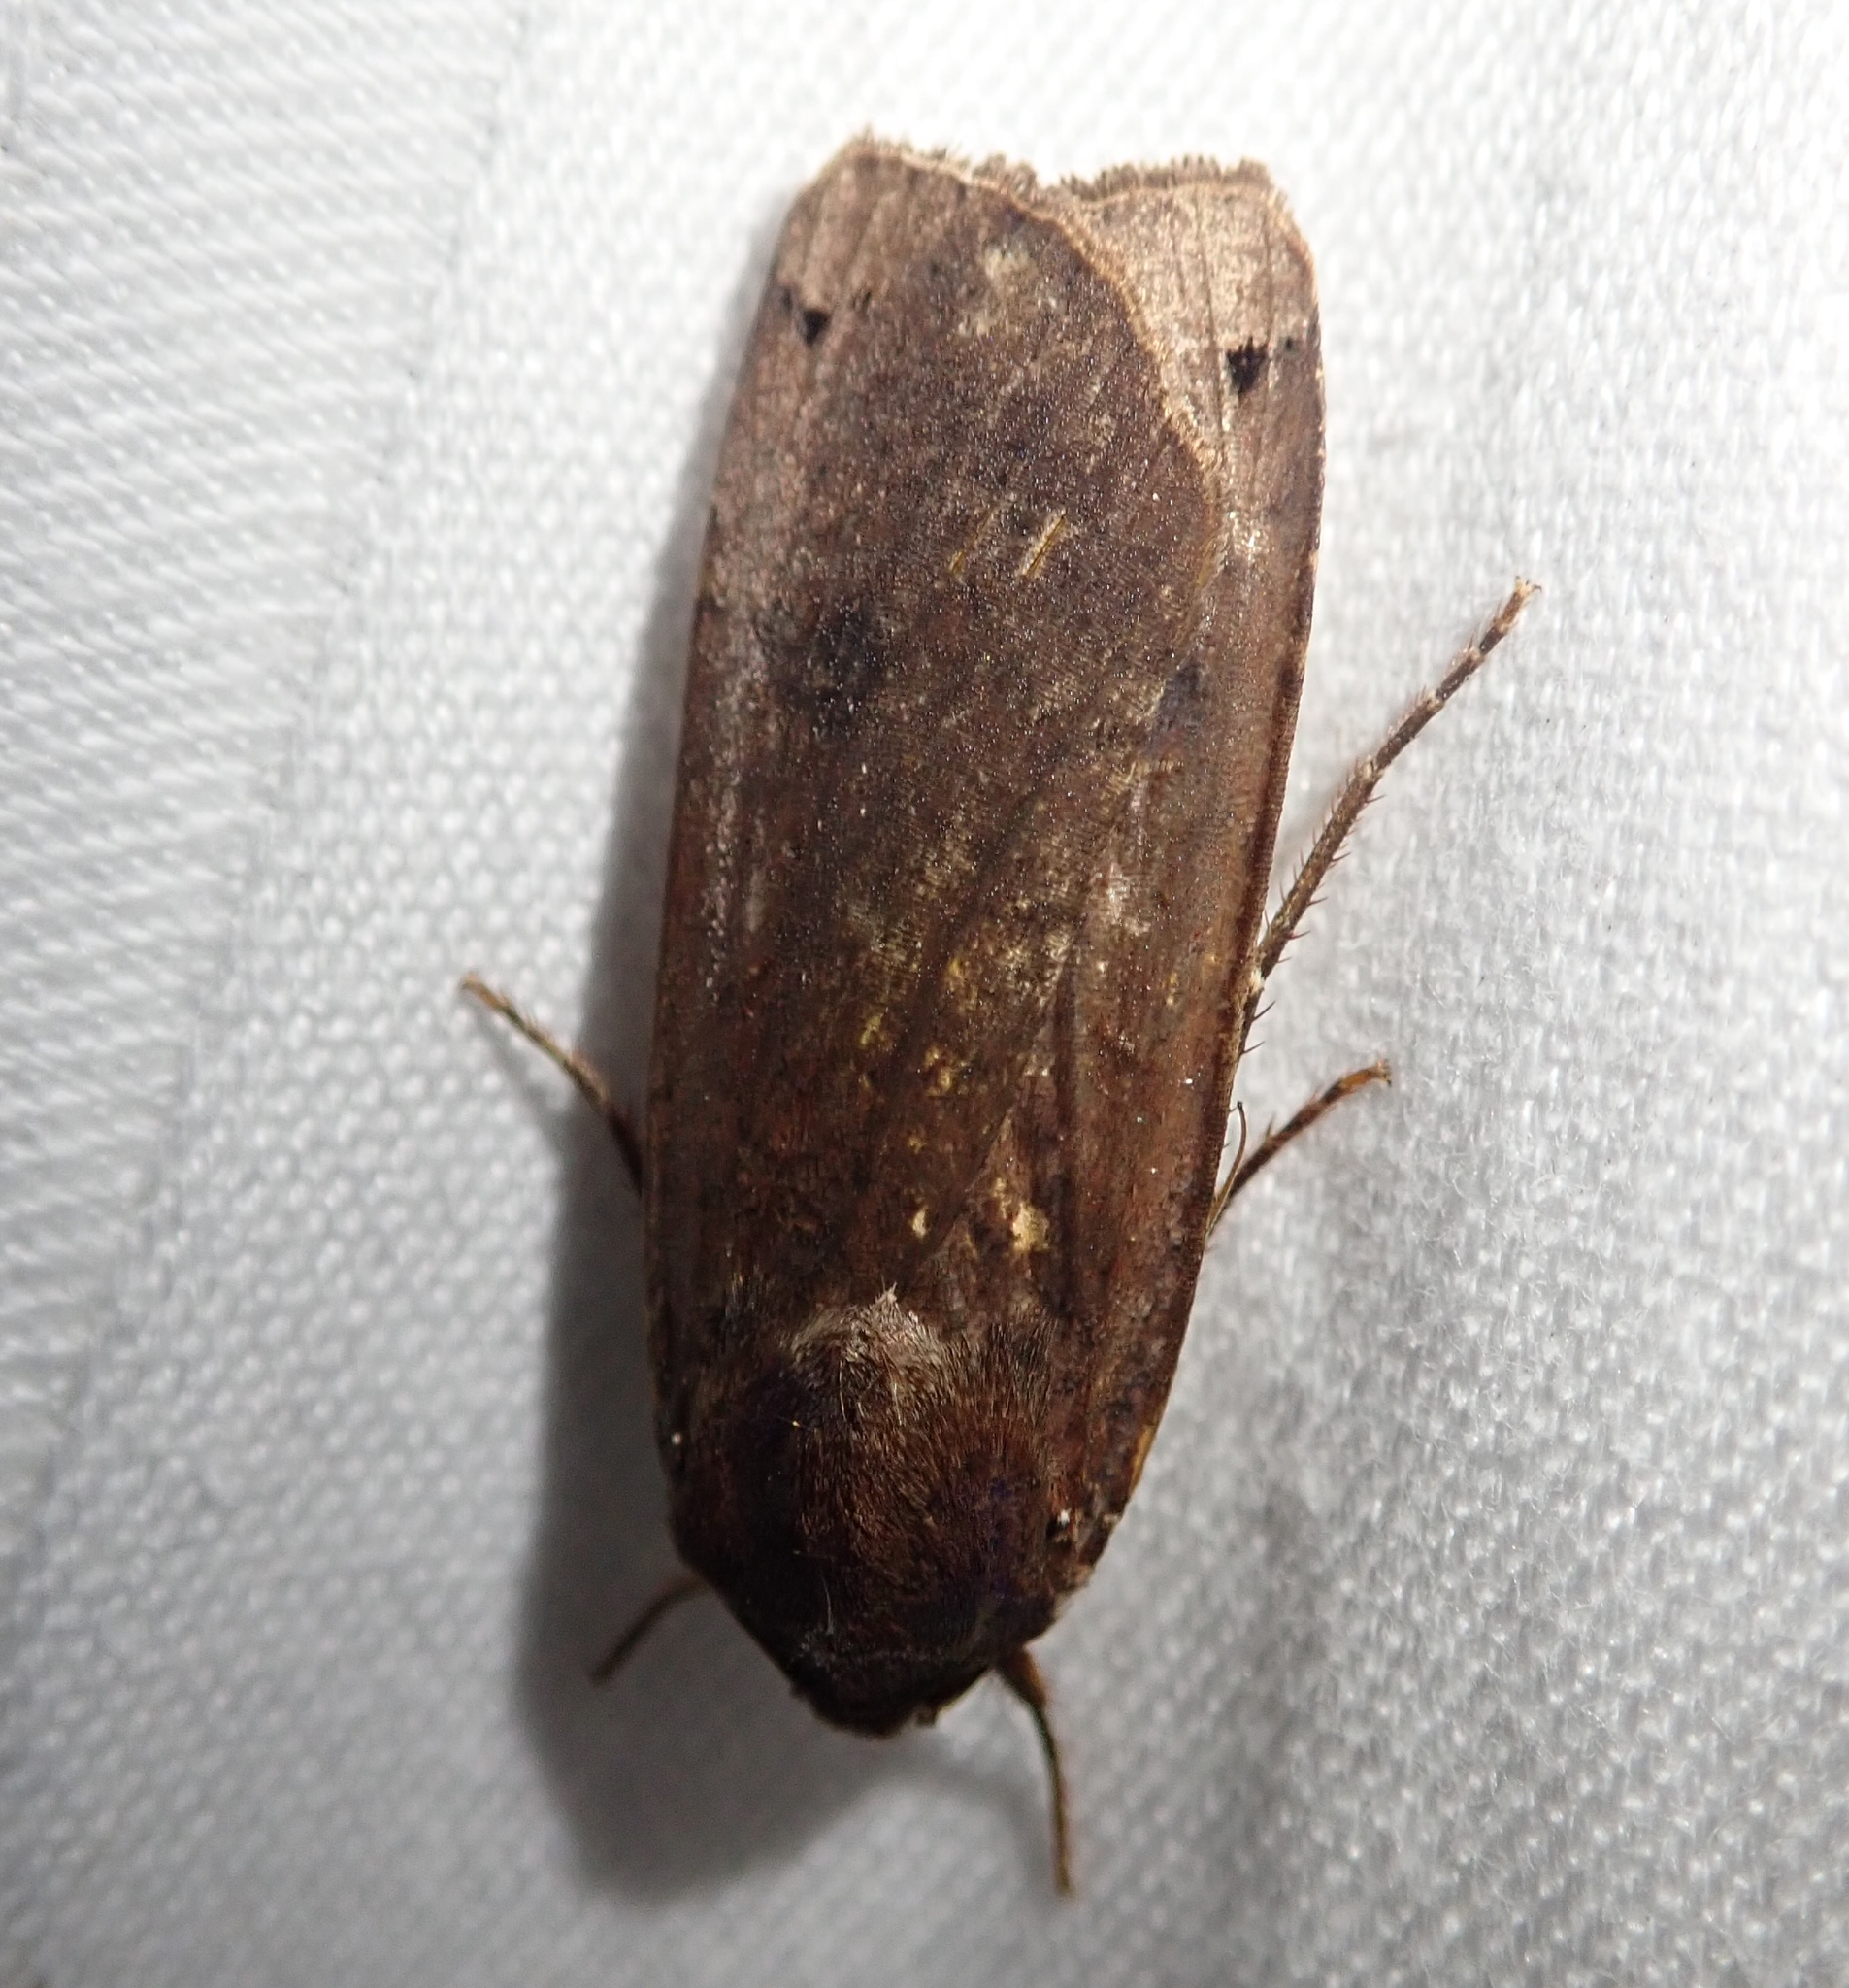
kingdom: Animalia
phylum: Arthropoda
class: Insecta
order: Lepidoptera
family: Noctuidae
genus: Noctua
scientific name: Noctua pronuba
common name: Large yellow underwing
